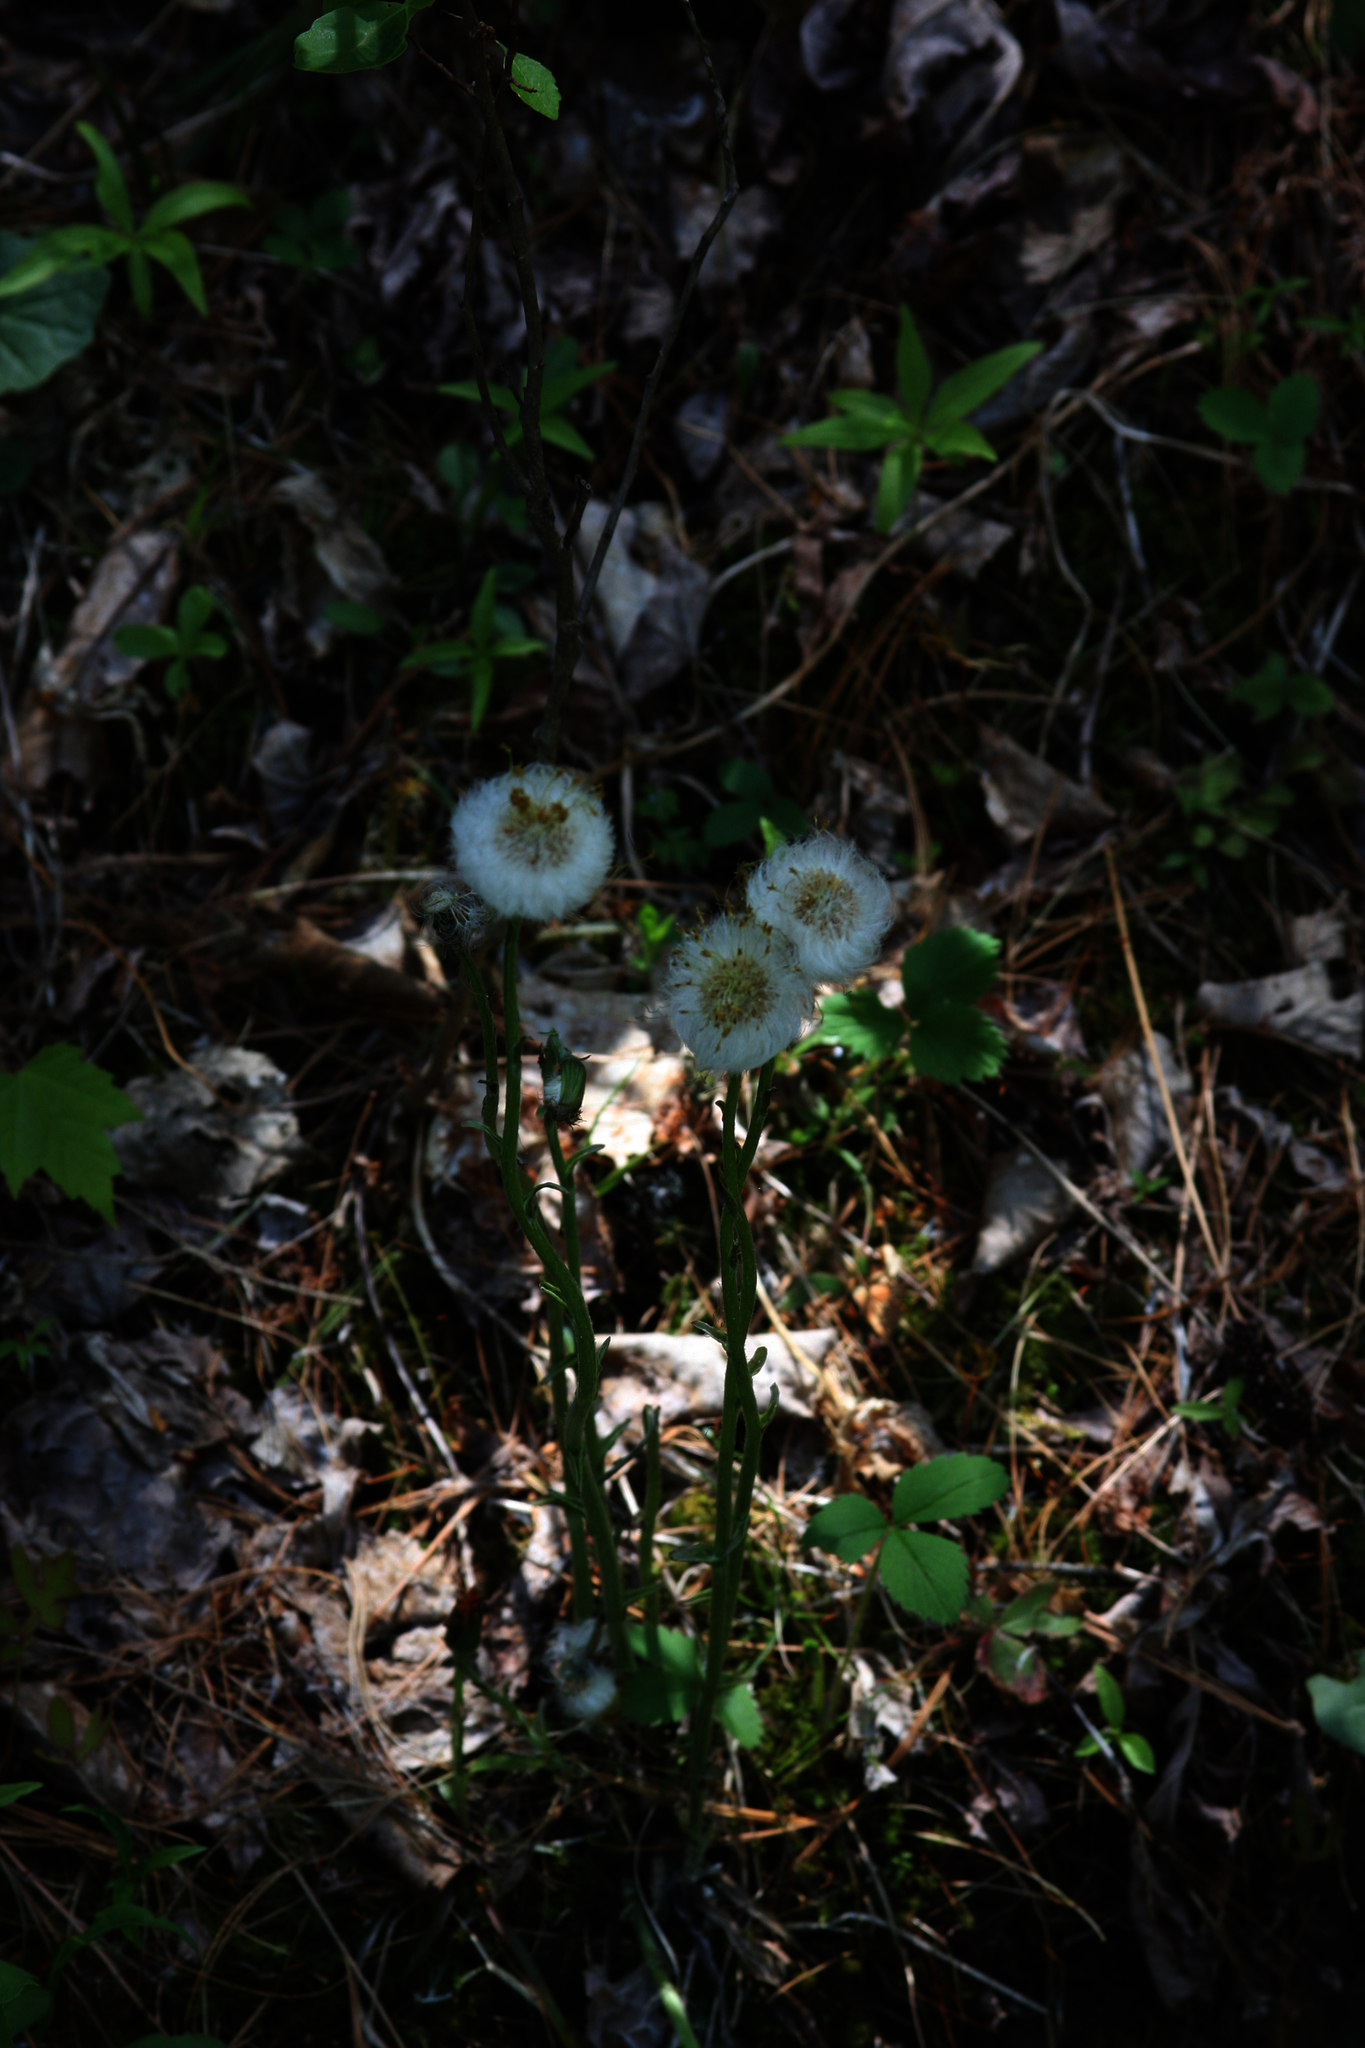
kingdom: Plantae
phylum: Tracheophyta
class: Magnoliopsida
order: Asterales
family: Asteraceae
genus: Tussilago
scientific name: Tussilago farfara
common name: Coltsfoot
